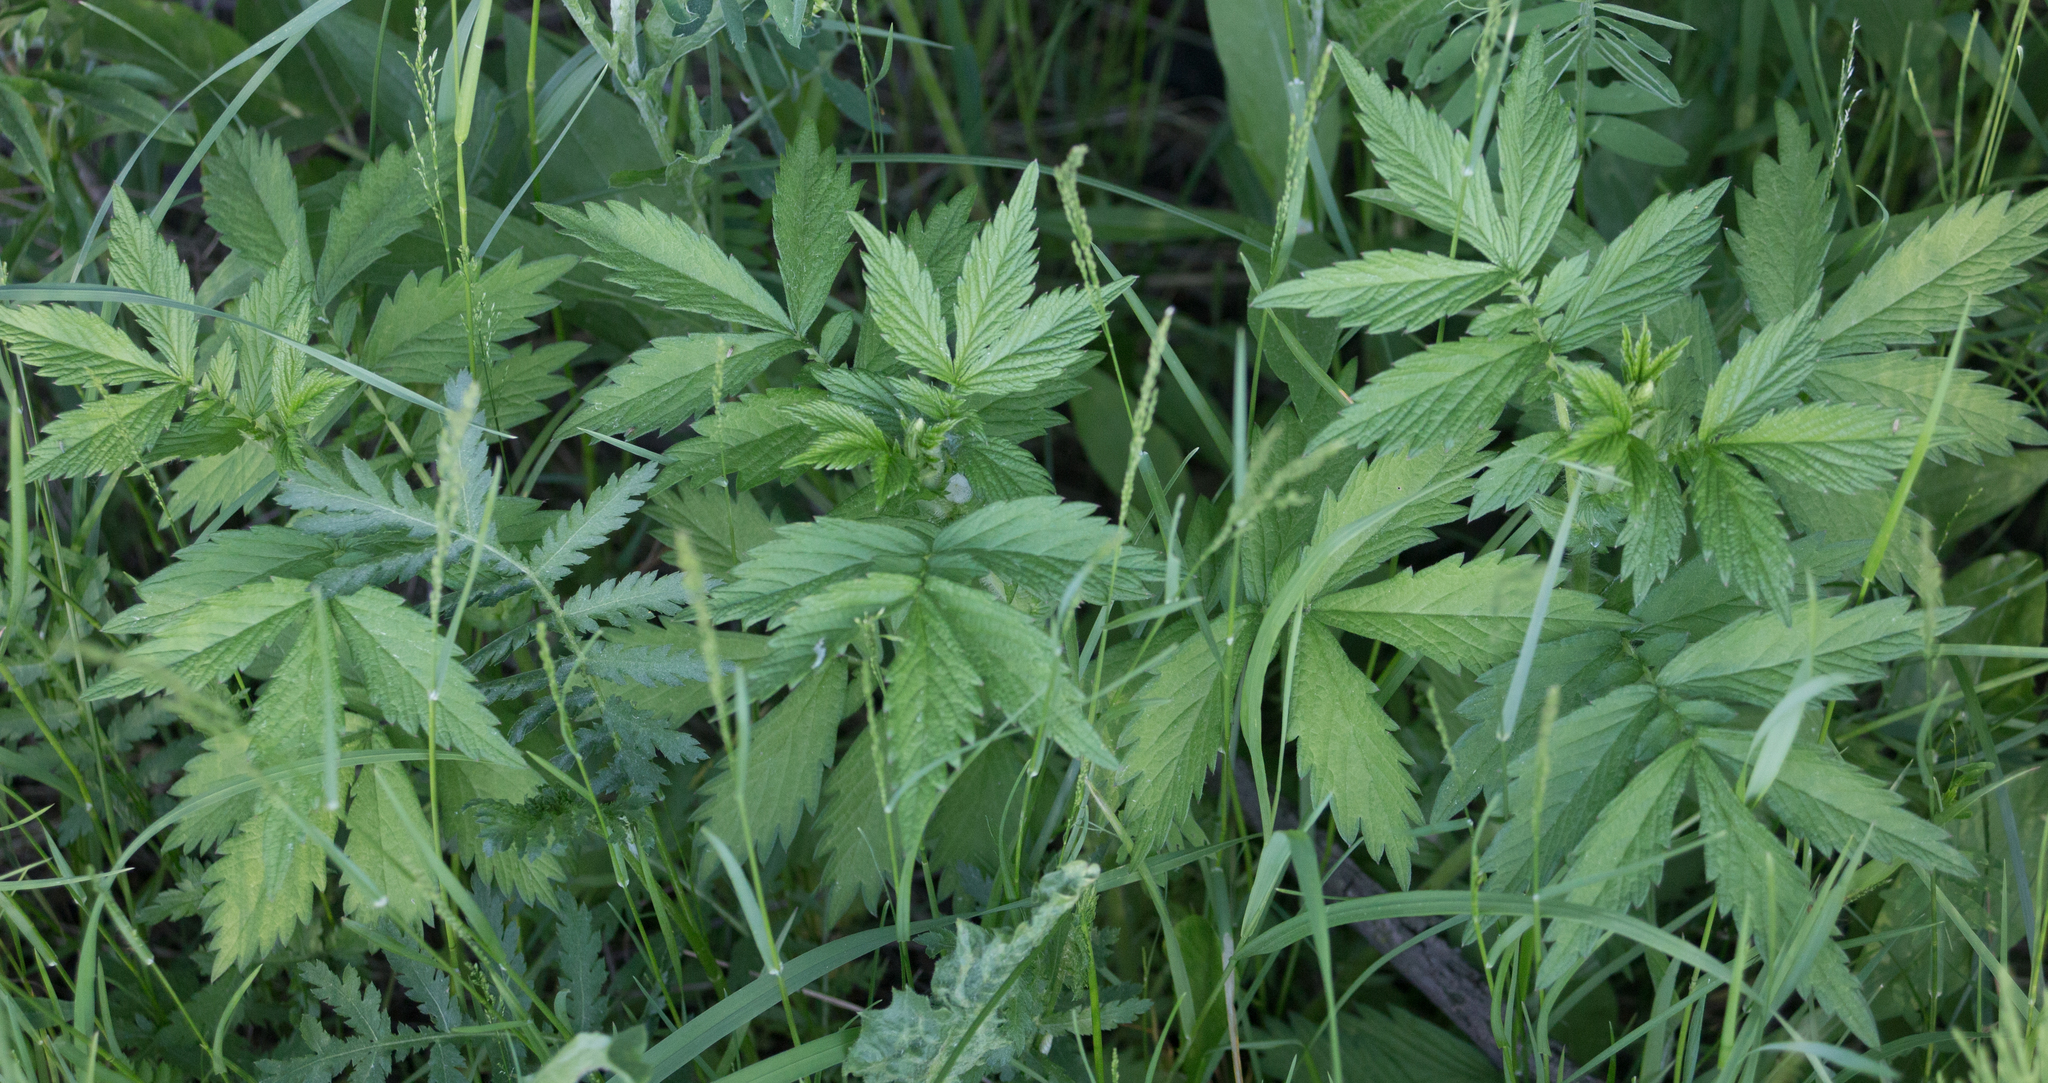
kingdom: Plantae
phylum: Tracheophyta
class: Magnoliopsida
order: Rosales
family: Rosaceae
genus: Agrimonia
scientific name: Agrimonia pilosa
